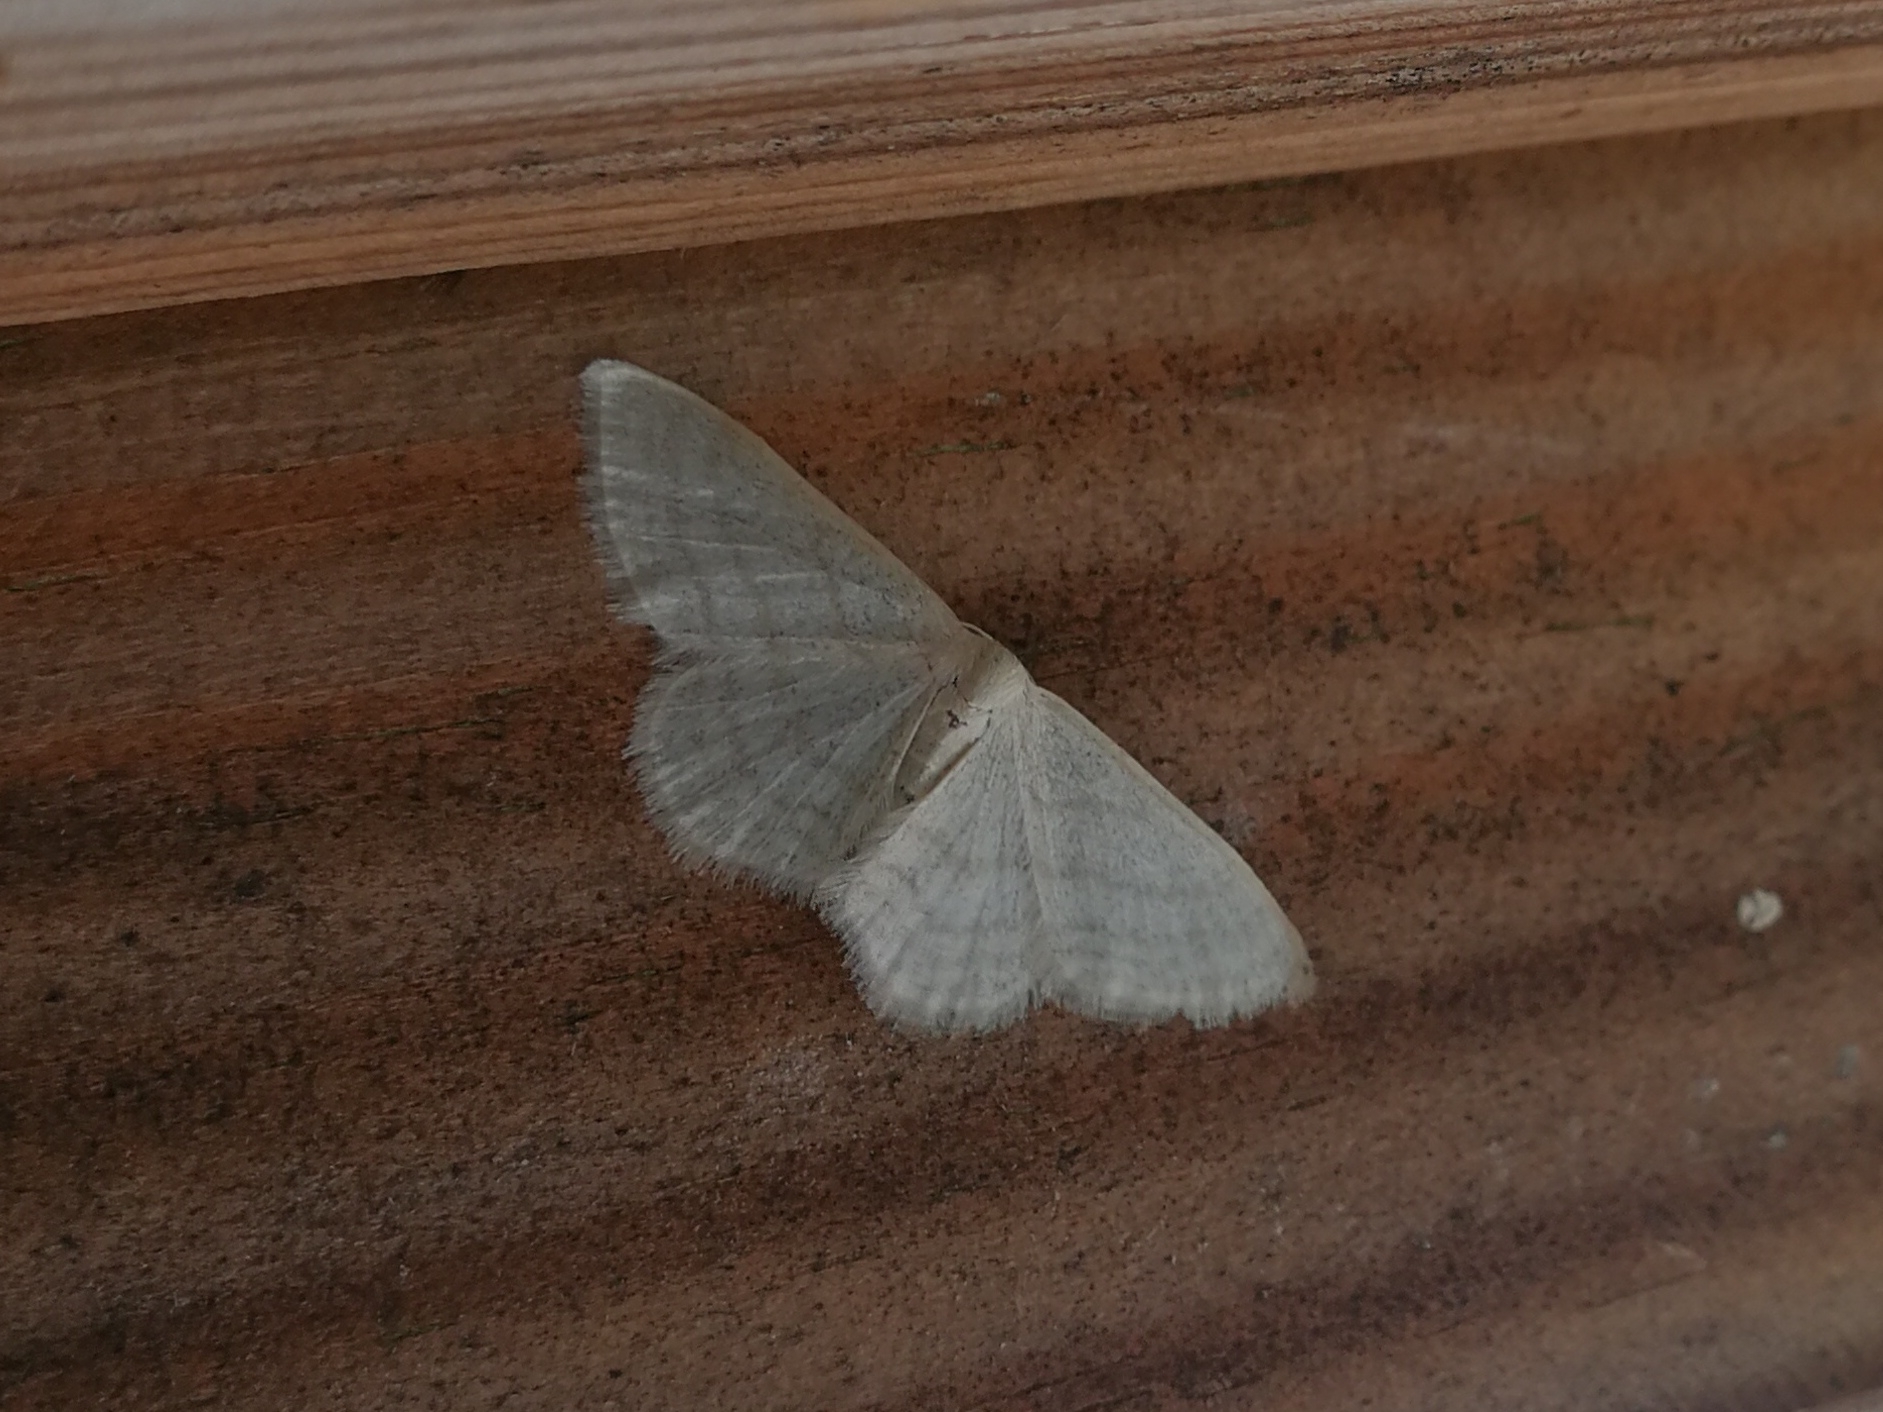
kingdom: Animalia
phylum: Arthropoda
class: Insecta
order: Lepidoptera
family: Geometridae
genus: Idaea
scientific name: Idaea subsericeata
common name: Satin wave
